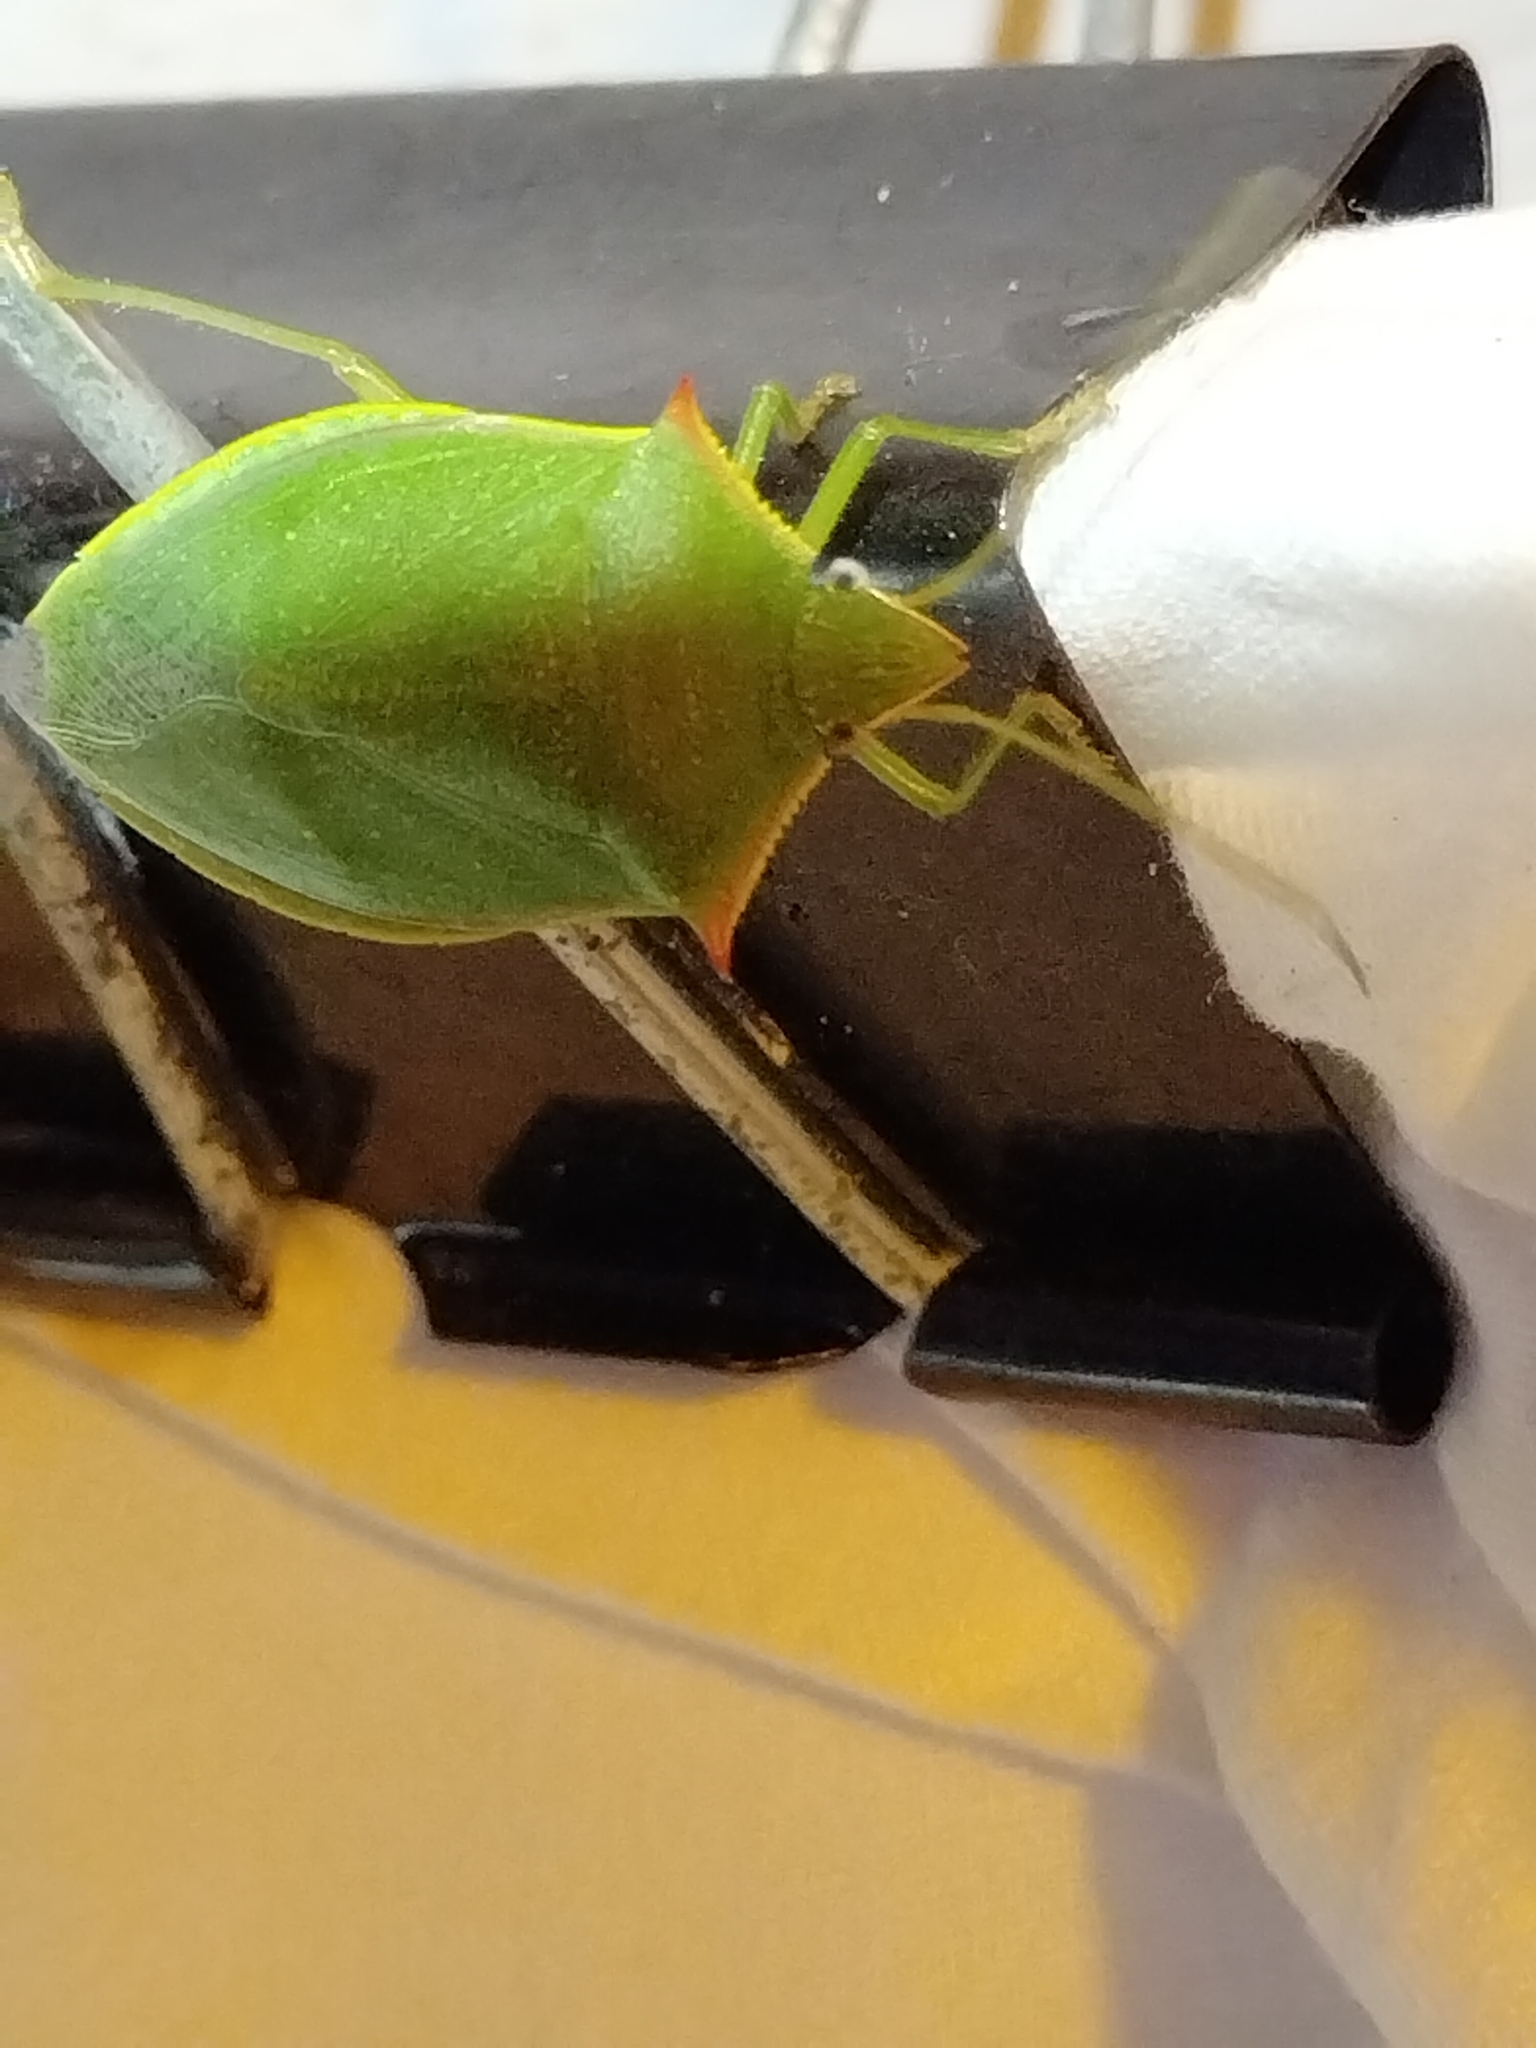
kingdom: Animalia
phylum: Arthropoda
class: Insecta
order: Hemiptera
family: Pentatomidae
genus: Loxa
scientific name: Loxa flavicollis
